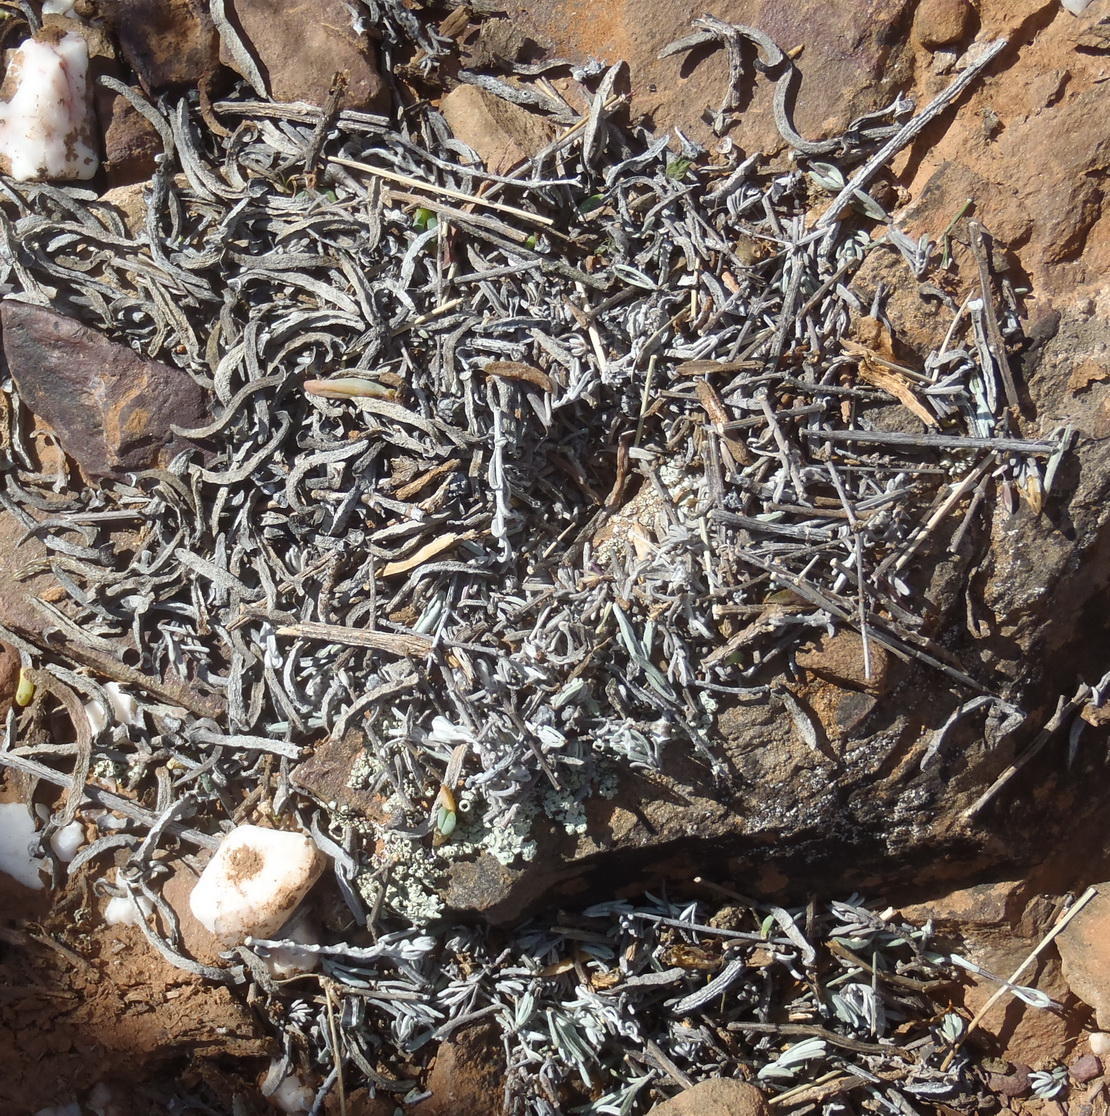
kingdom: Animalia
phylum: Arthropoda
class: Insecta
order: Blattodea
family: Hodotermitidae
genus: Microhodotermes
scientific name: Microhodotermes viator
